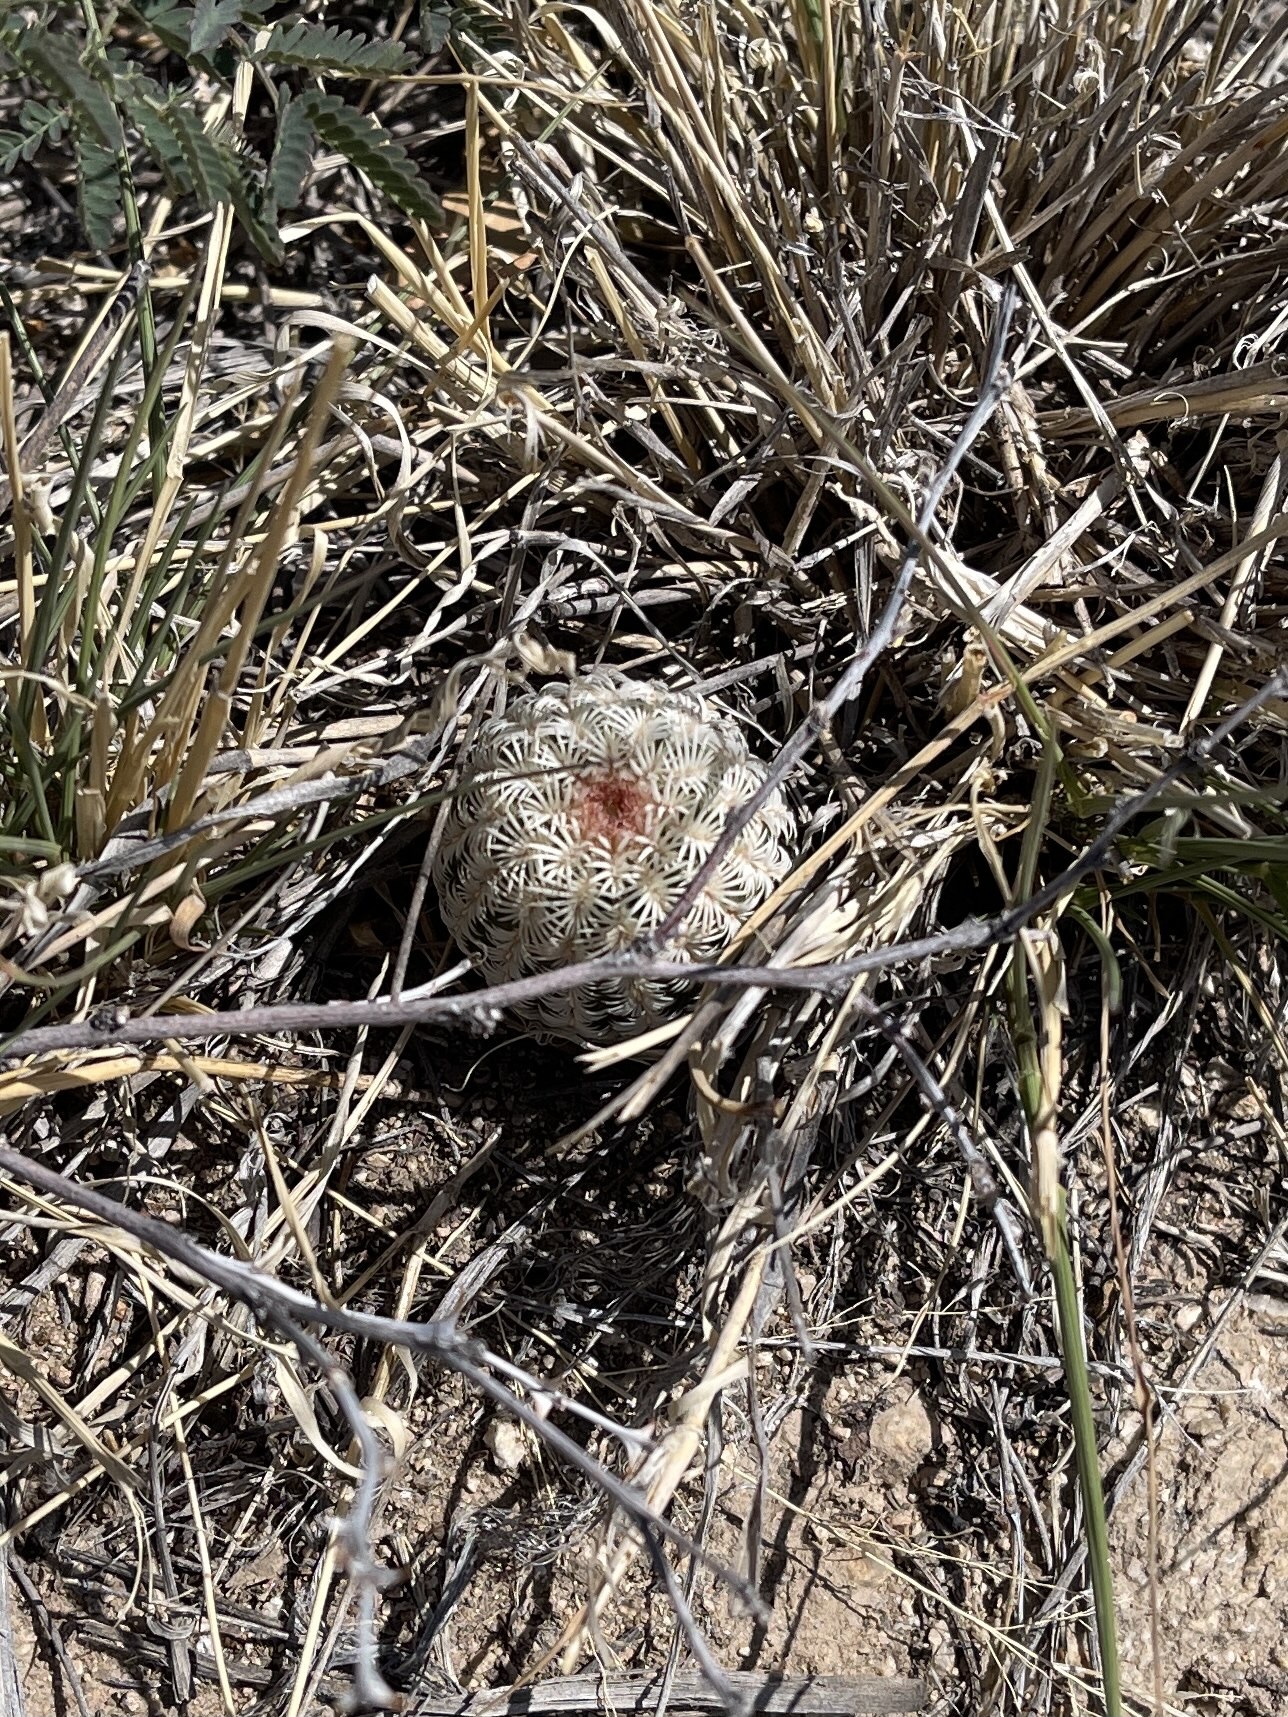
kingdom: Plantae
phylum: Tracheophyta
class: Magnoliopsida
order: Caryophyllales
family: Cactaceae
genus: Echinocereus
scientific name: Echinocereus rigidissimus
